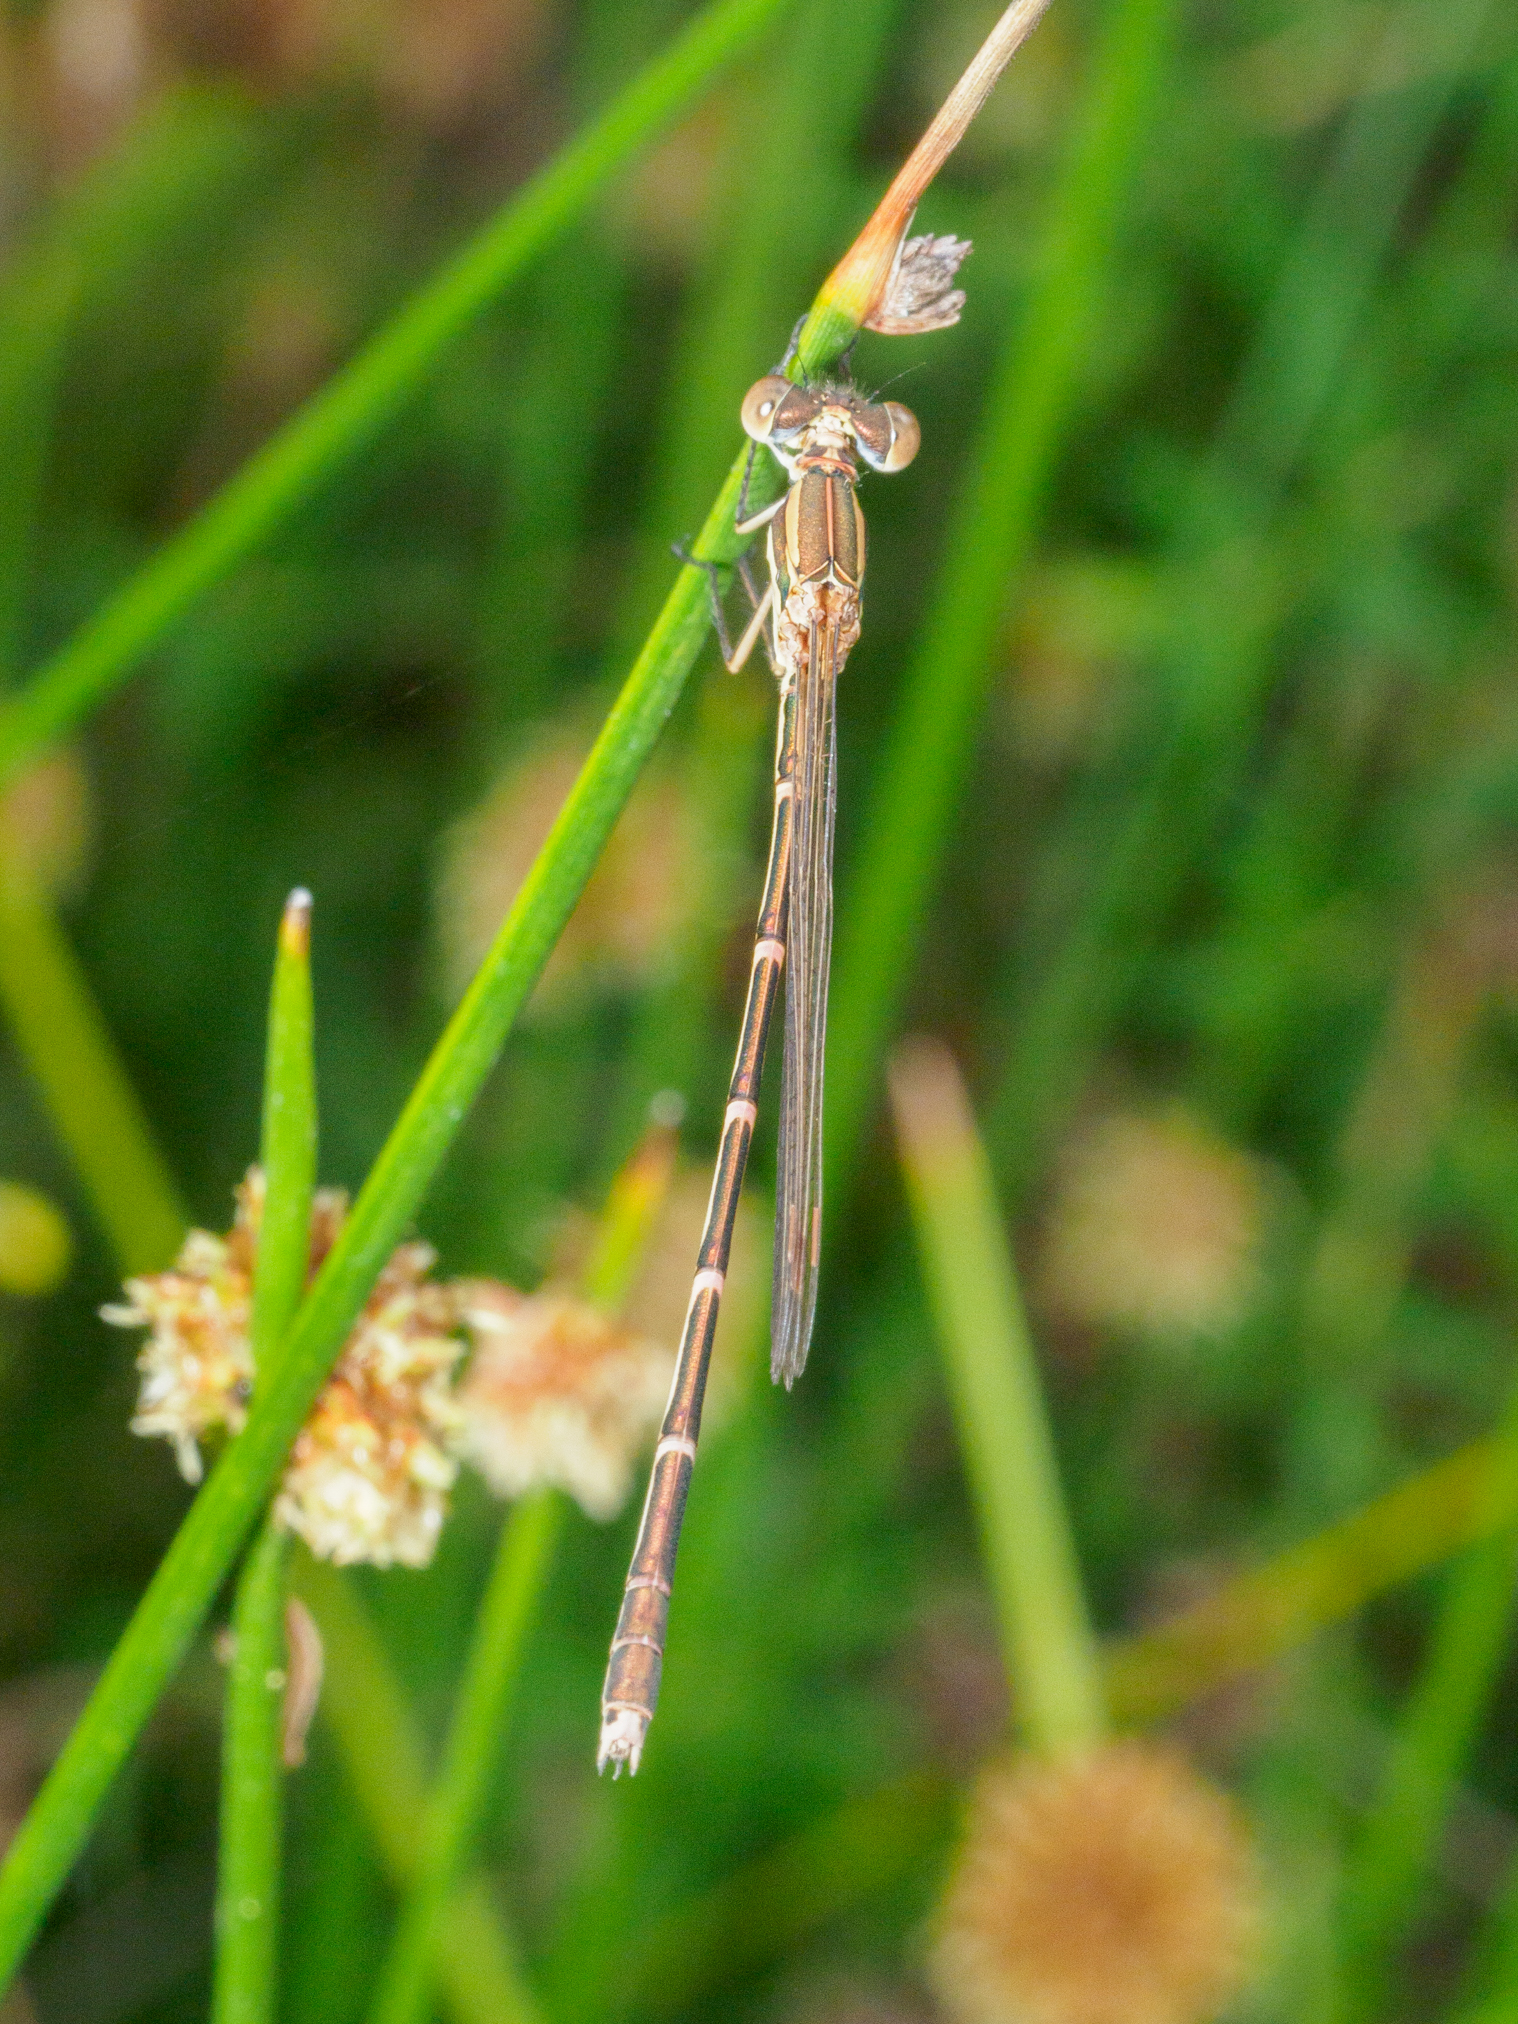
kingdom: Animalia
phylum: Arthropoda
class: Insecta
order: Odonata
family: Lestidae
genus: Austrolestes
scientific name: Austrolestes analis
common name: Slender ringtail
